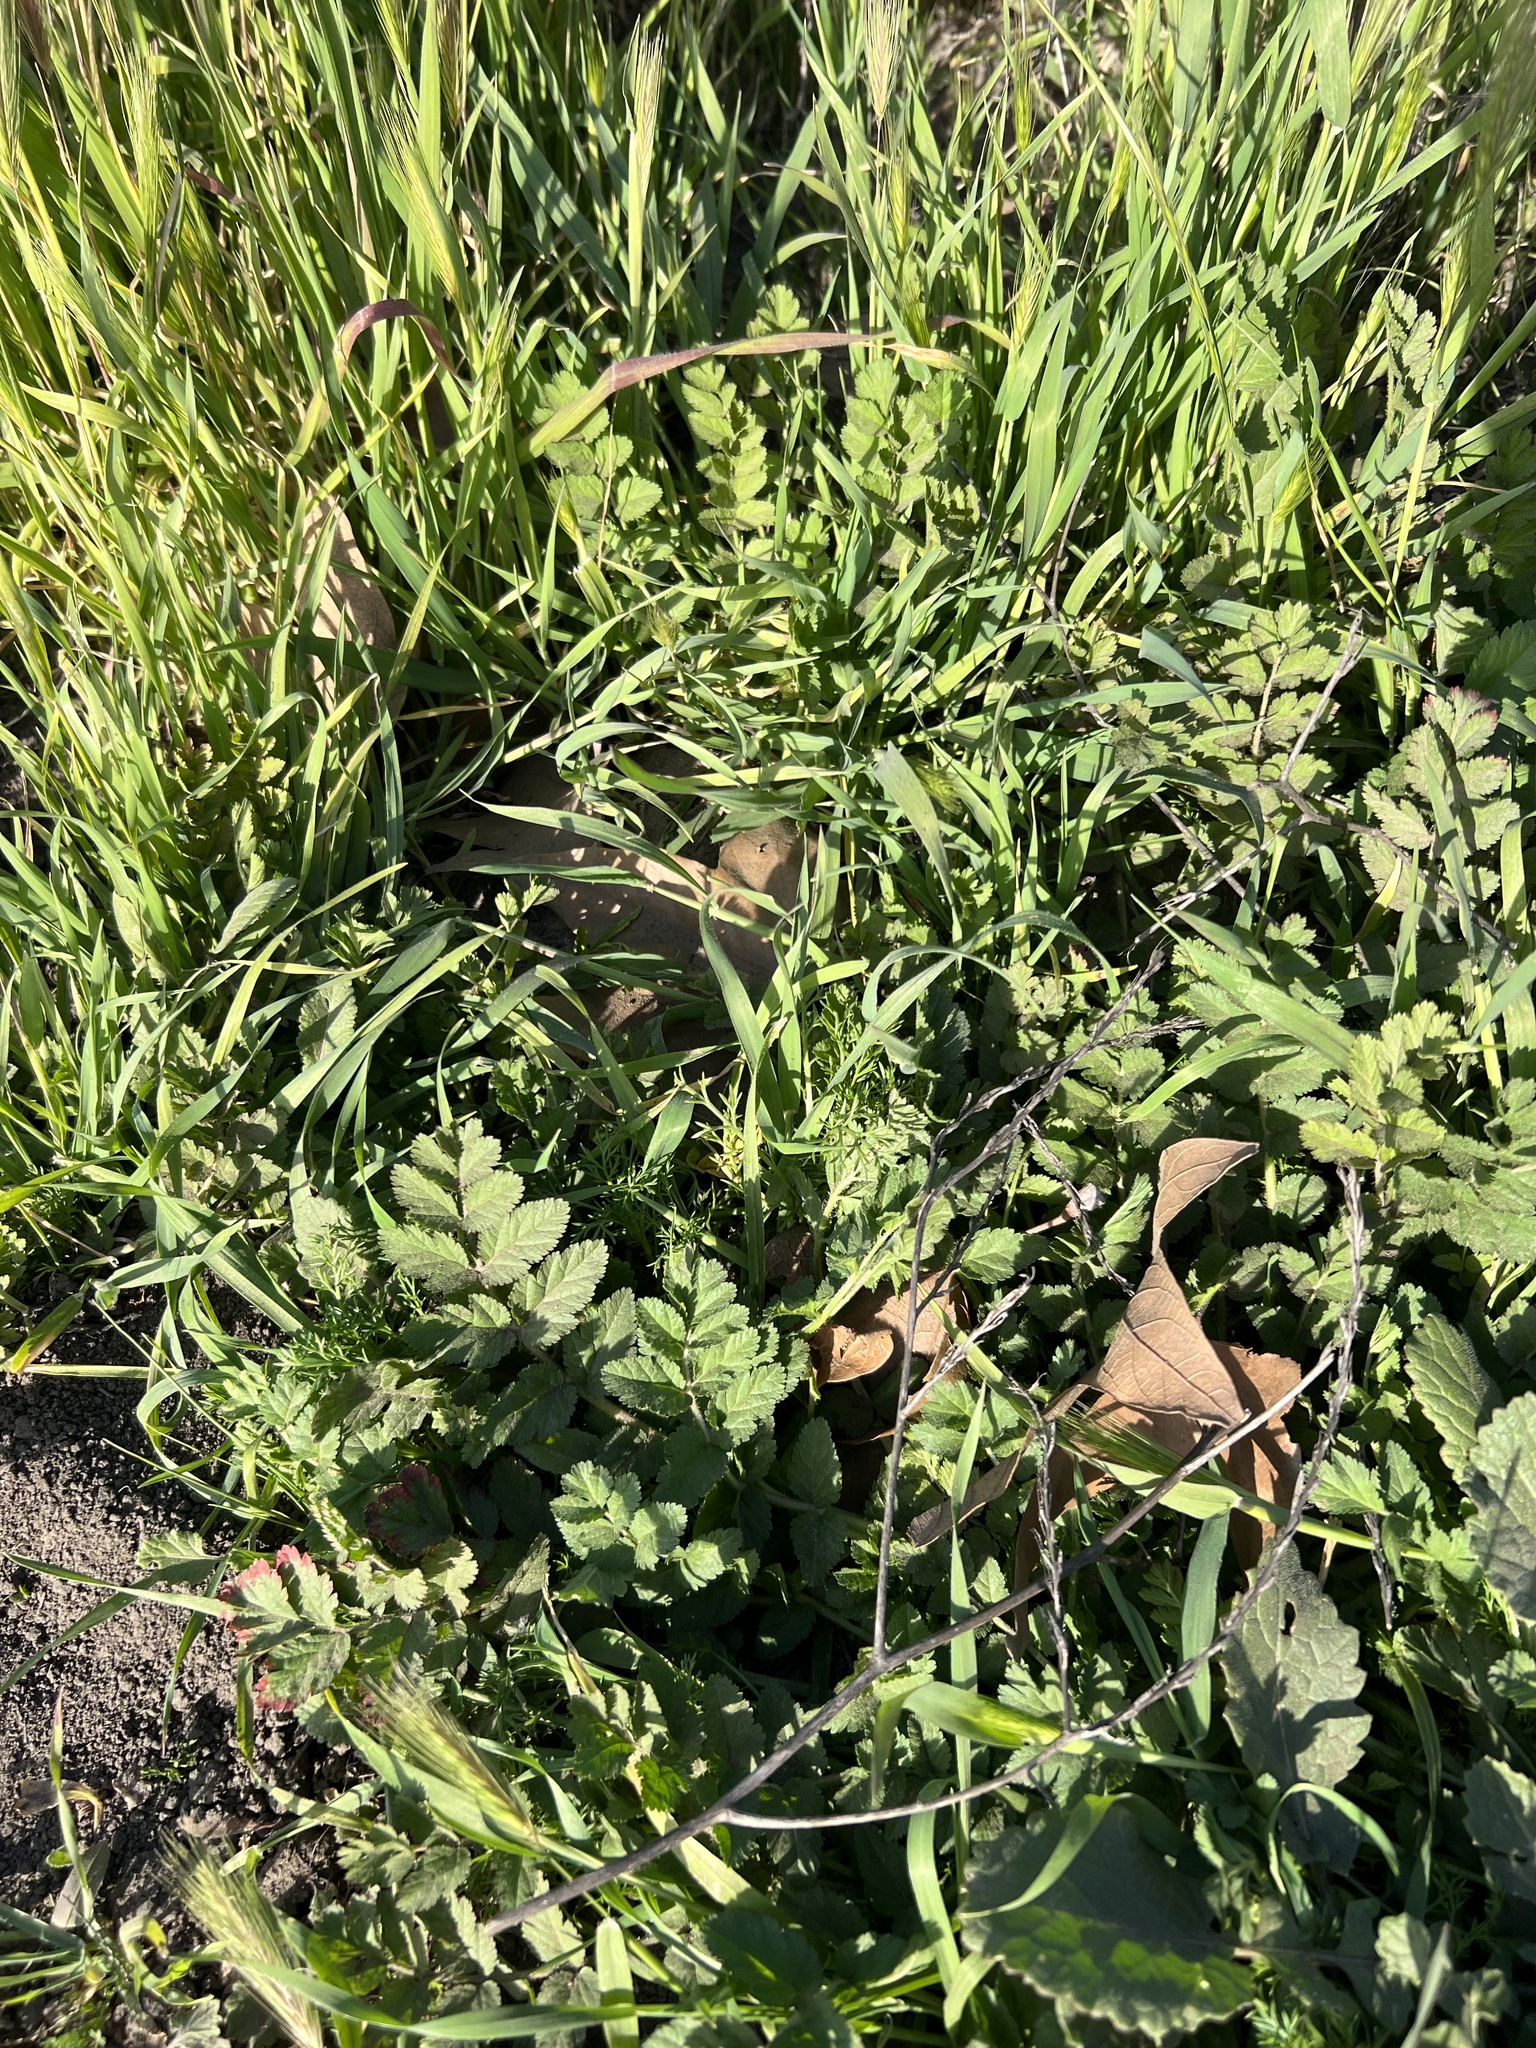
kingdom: Plantae
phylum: Tracheophyta
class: Magnoliopsida
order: Geraniales
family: Geraniaceae
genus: Erodium
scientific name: Erodium moschatum
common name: Musk stork's-bill
